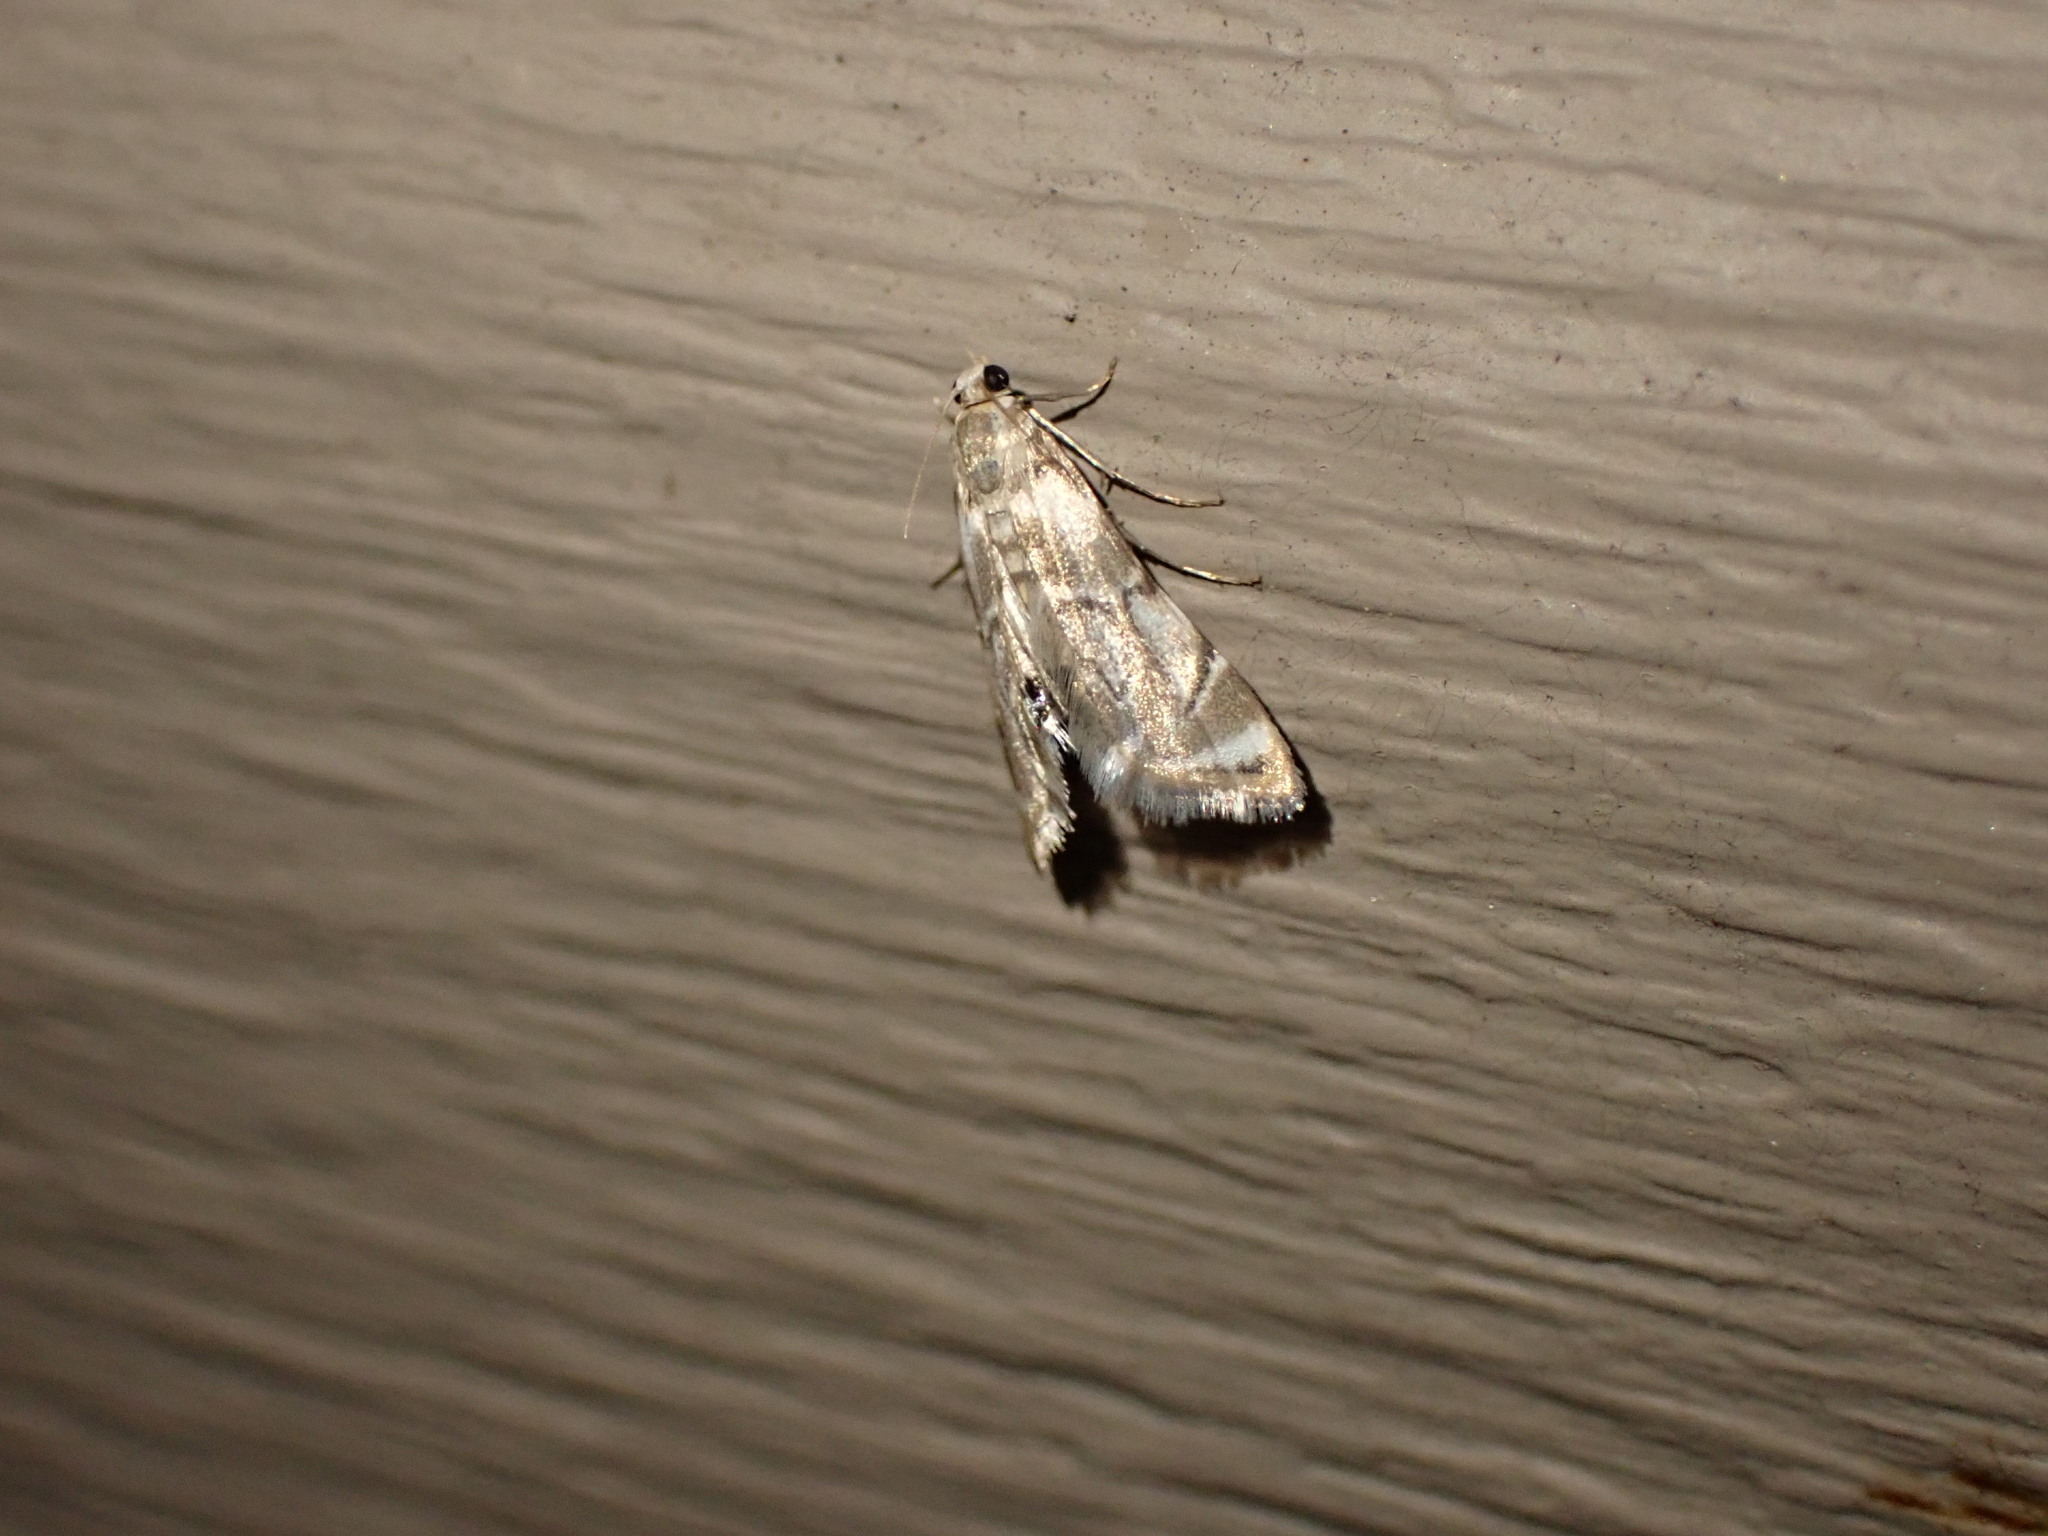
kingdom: Animalia
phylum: Arthropoda
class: Insecta
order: Lepidoptera
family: Crambidae
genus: Eoparargyractis
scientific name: Eoparargyractis plevie
